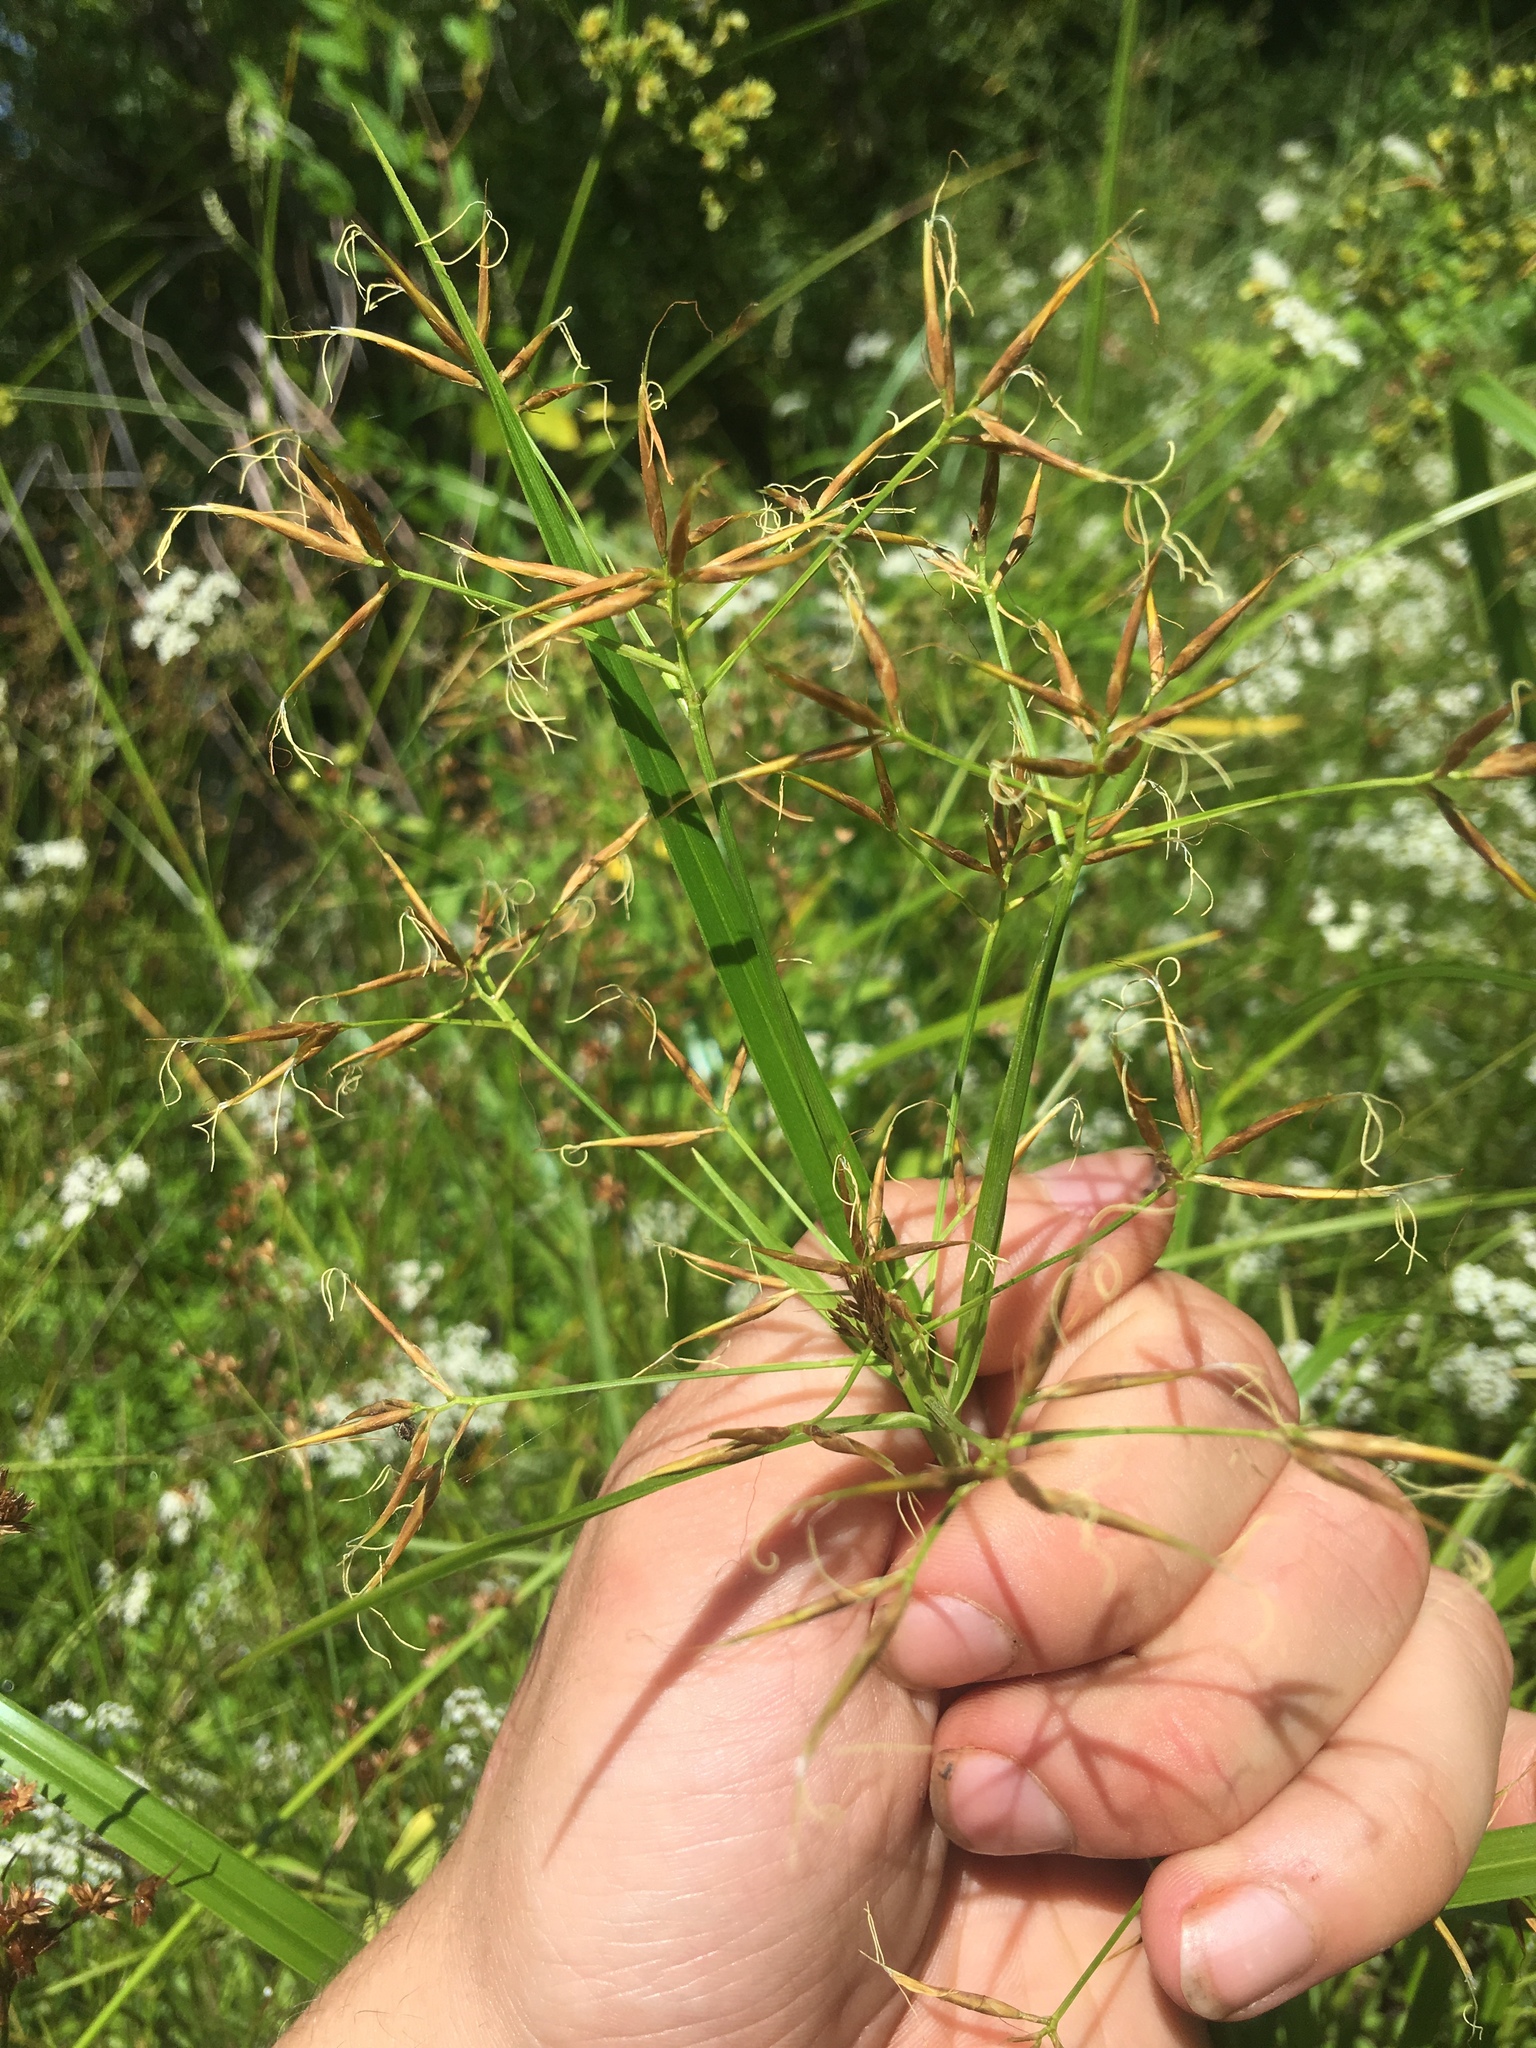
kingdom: Plantae
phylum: Tracheophyta
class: Liliopsida
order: Poales
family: Cyperaceae
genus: Rhynchospora
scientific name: Rhynchospora corniculata
